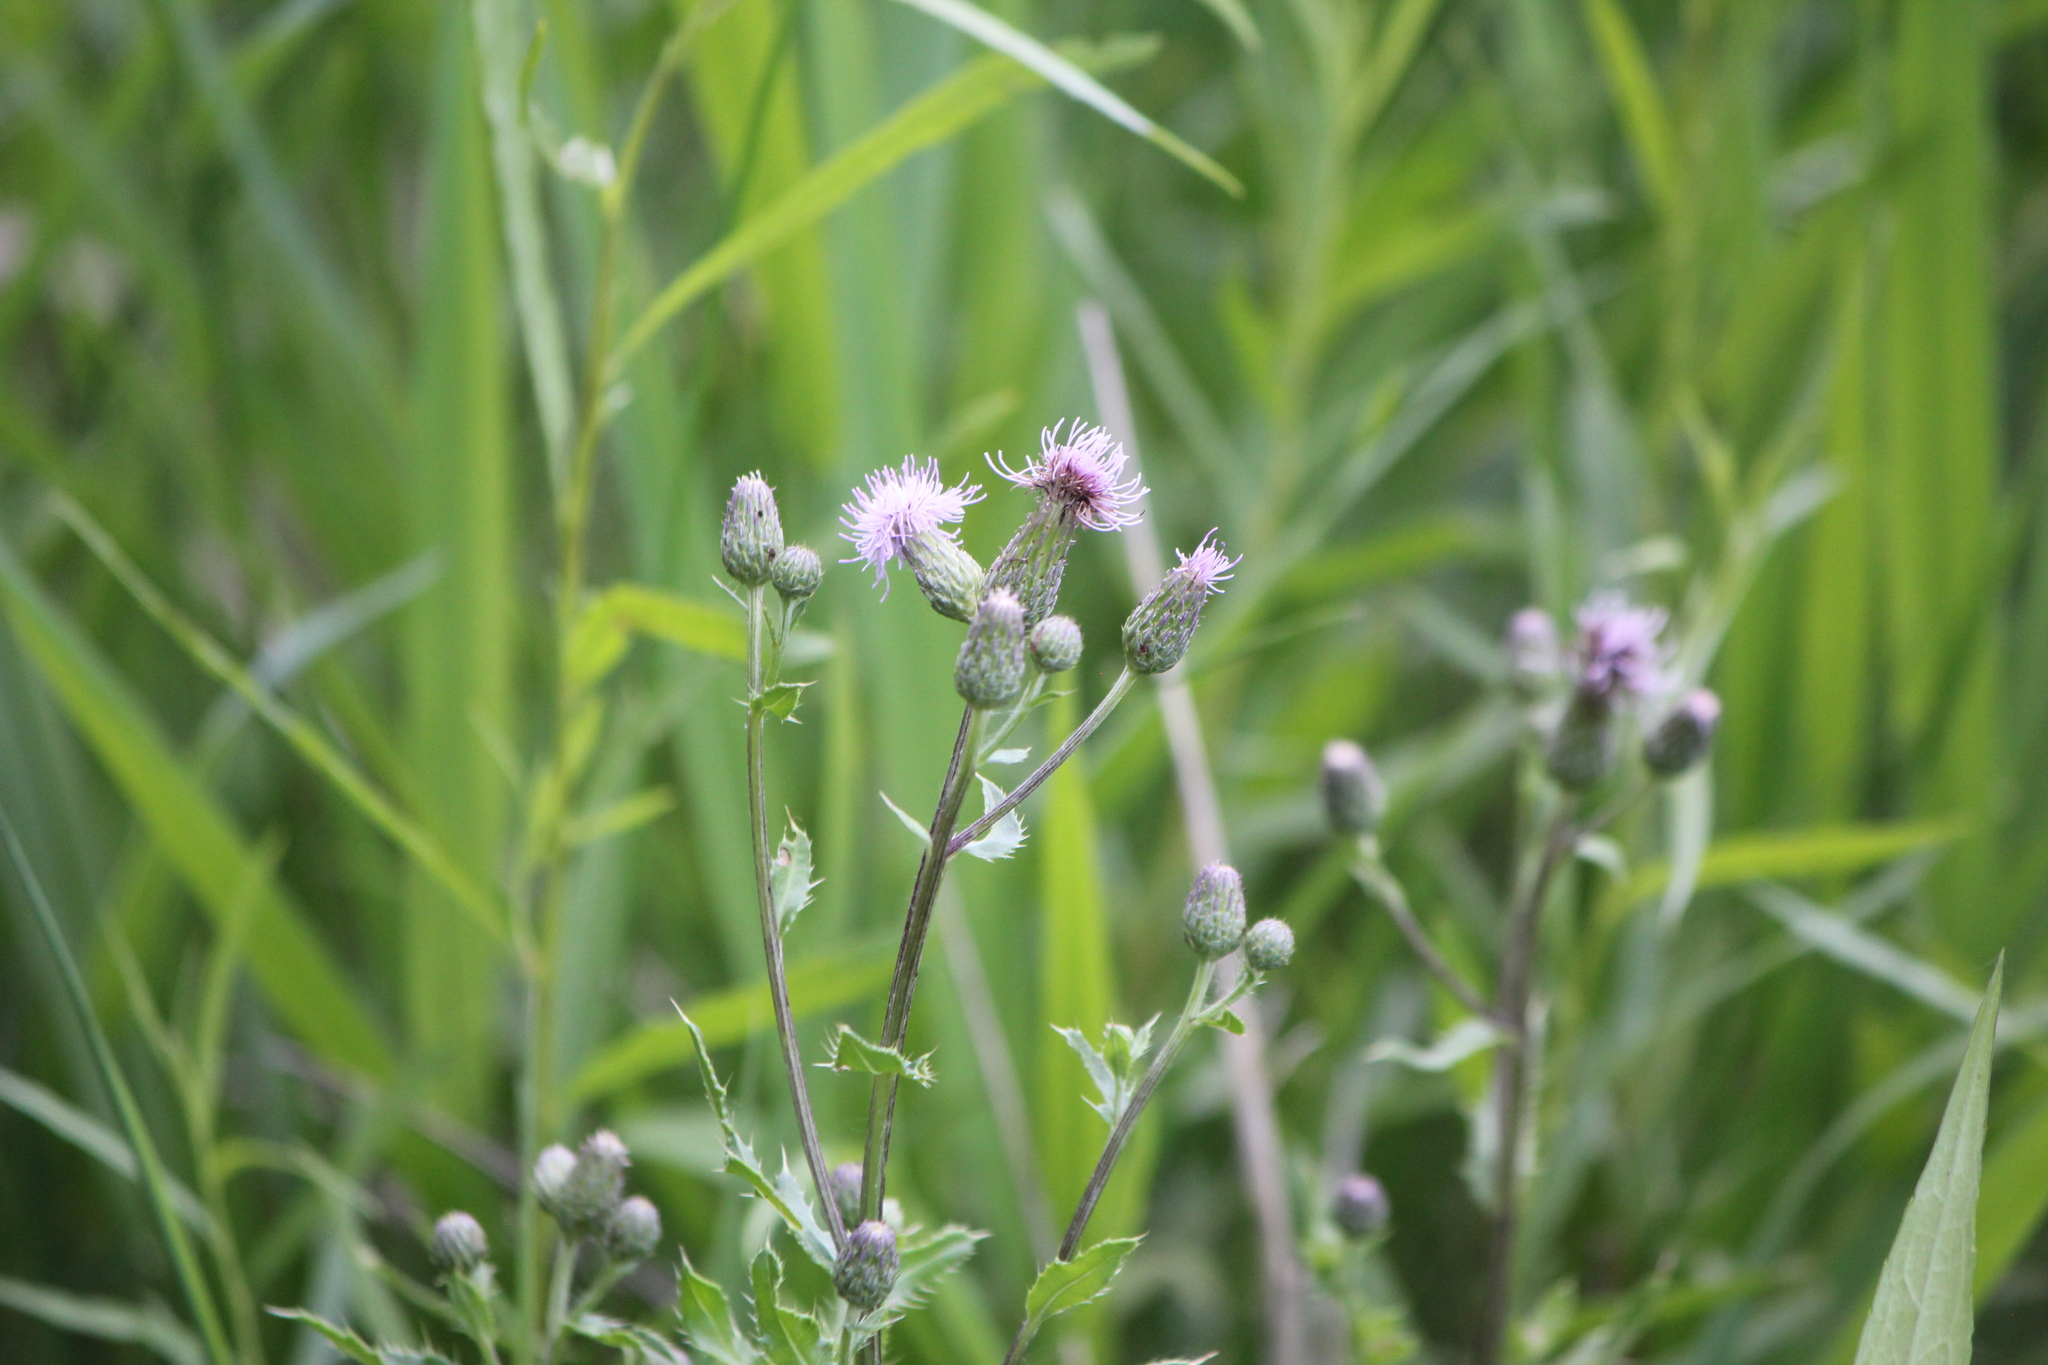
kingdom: Plantae
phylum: Tracheophyta
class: Magnoliopsida
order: Asterales
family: Asteraceae
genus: Cirsium
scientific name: Cirsium arvense
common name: Creeping thistle
